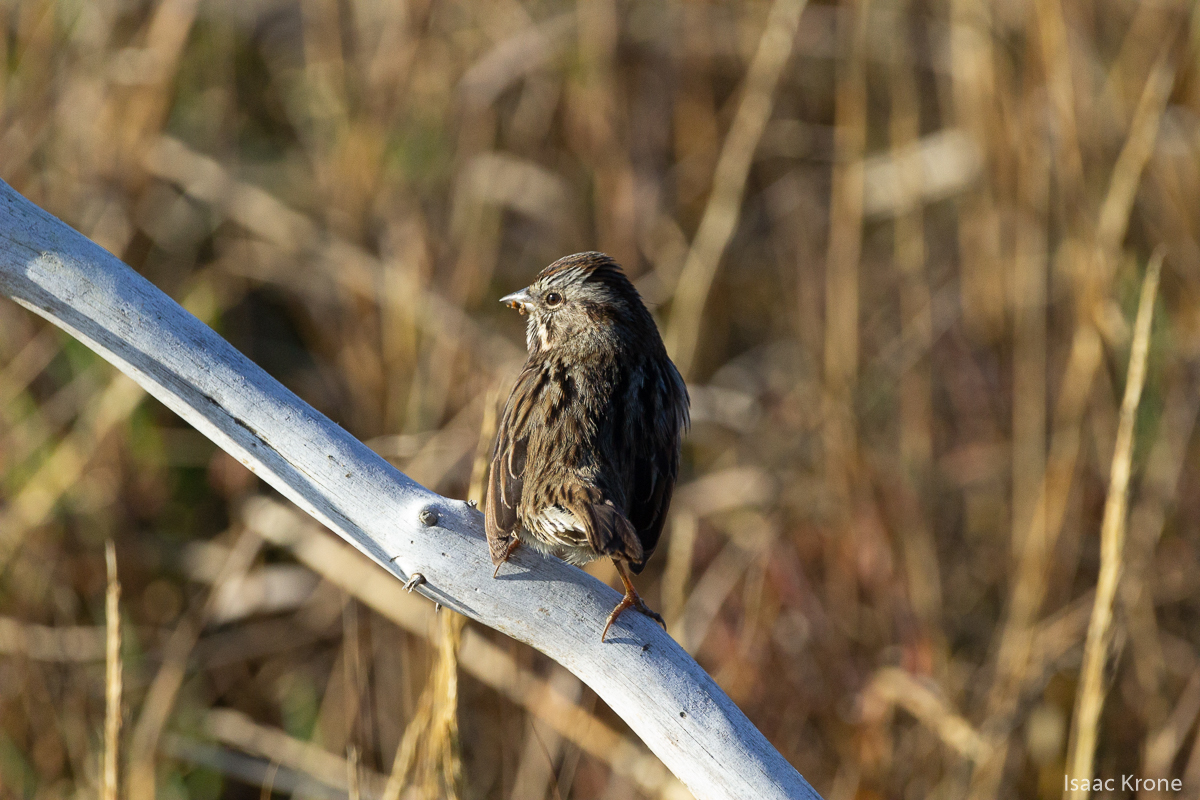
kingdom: Animalia
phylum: Chordata
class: Aves
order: Passeriformes
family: Passerellidae
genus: Melospiza
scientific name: Melospiza melodia
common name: Song sparrow
